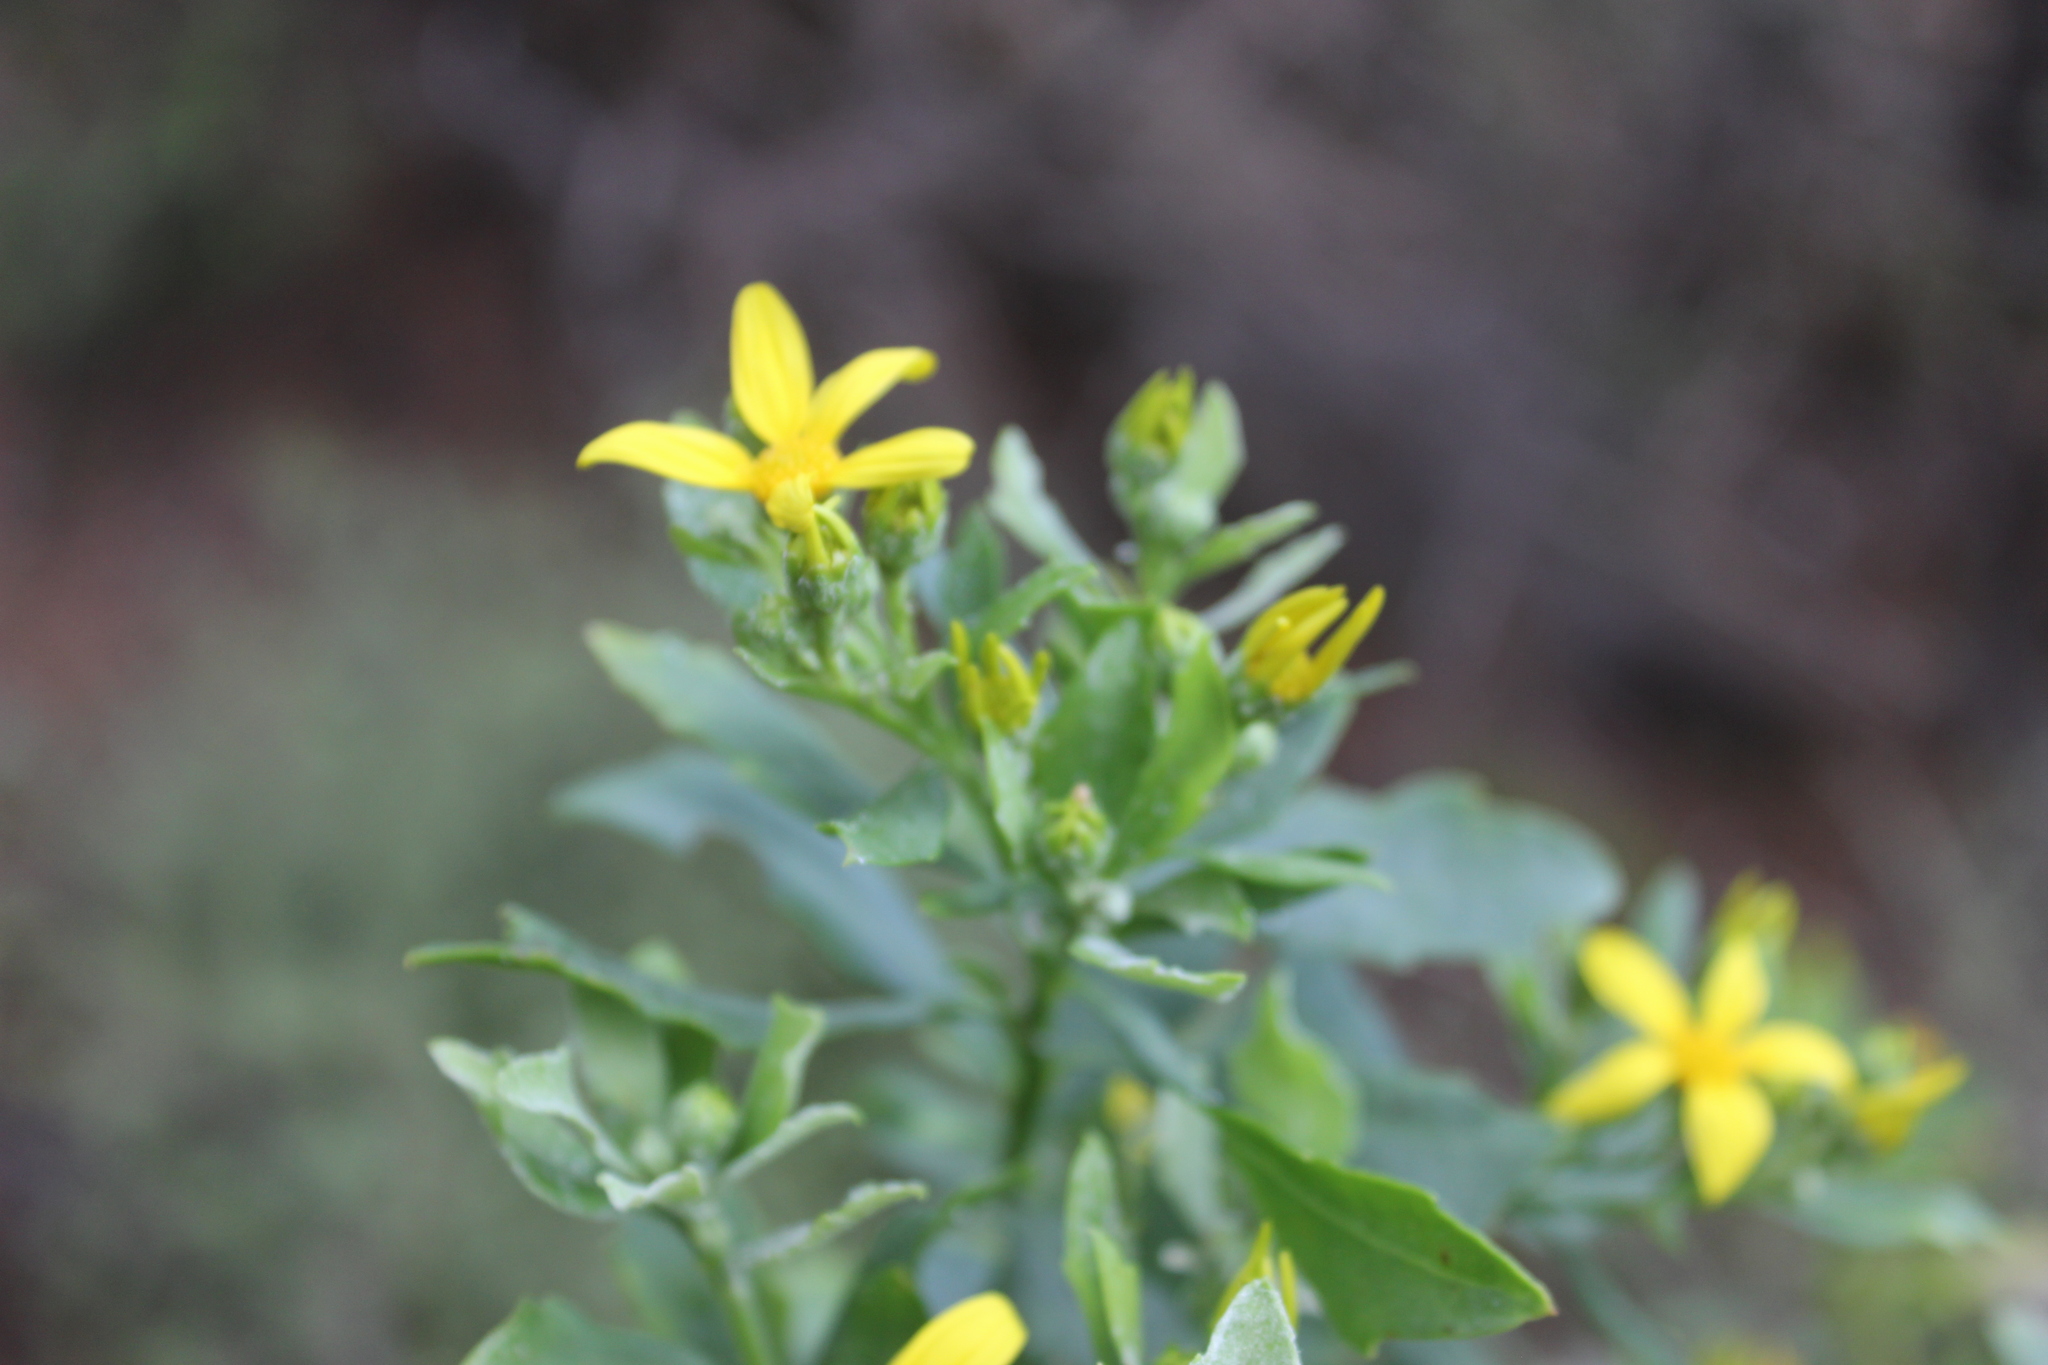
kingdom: Plantae
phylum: Tracheophyta
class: Magnoliopsida
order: Asterales
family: Asteraceae
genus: Osteospermum
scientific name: Osteospermum moniliferum
